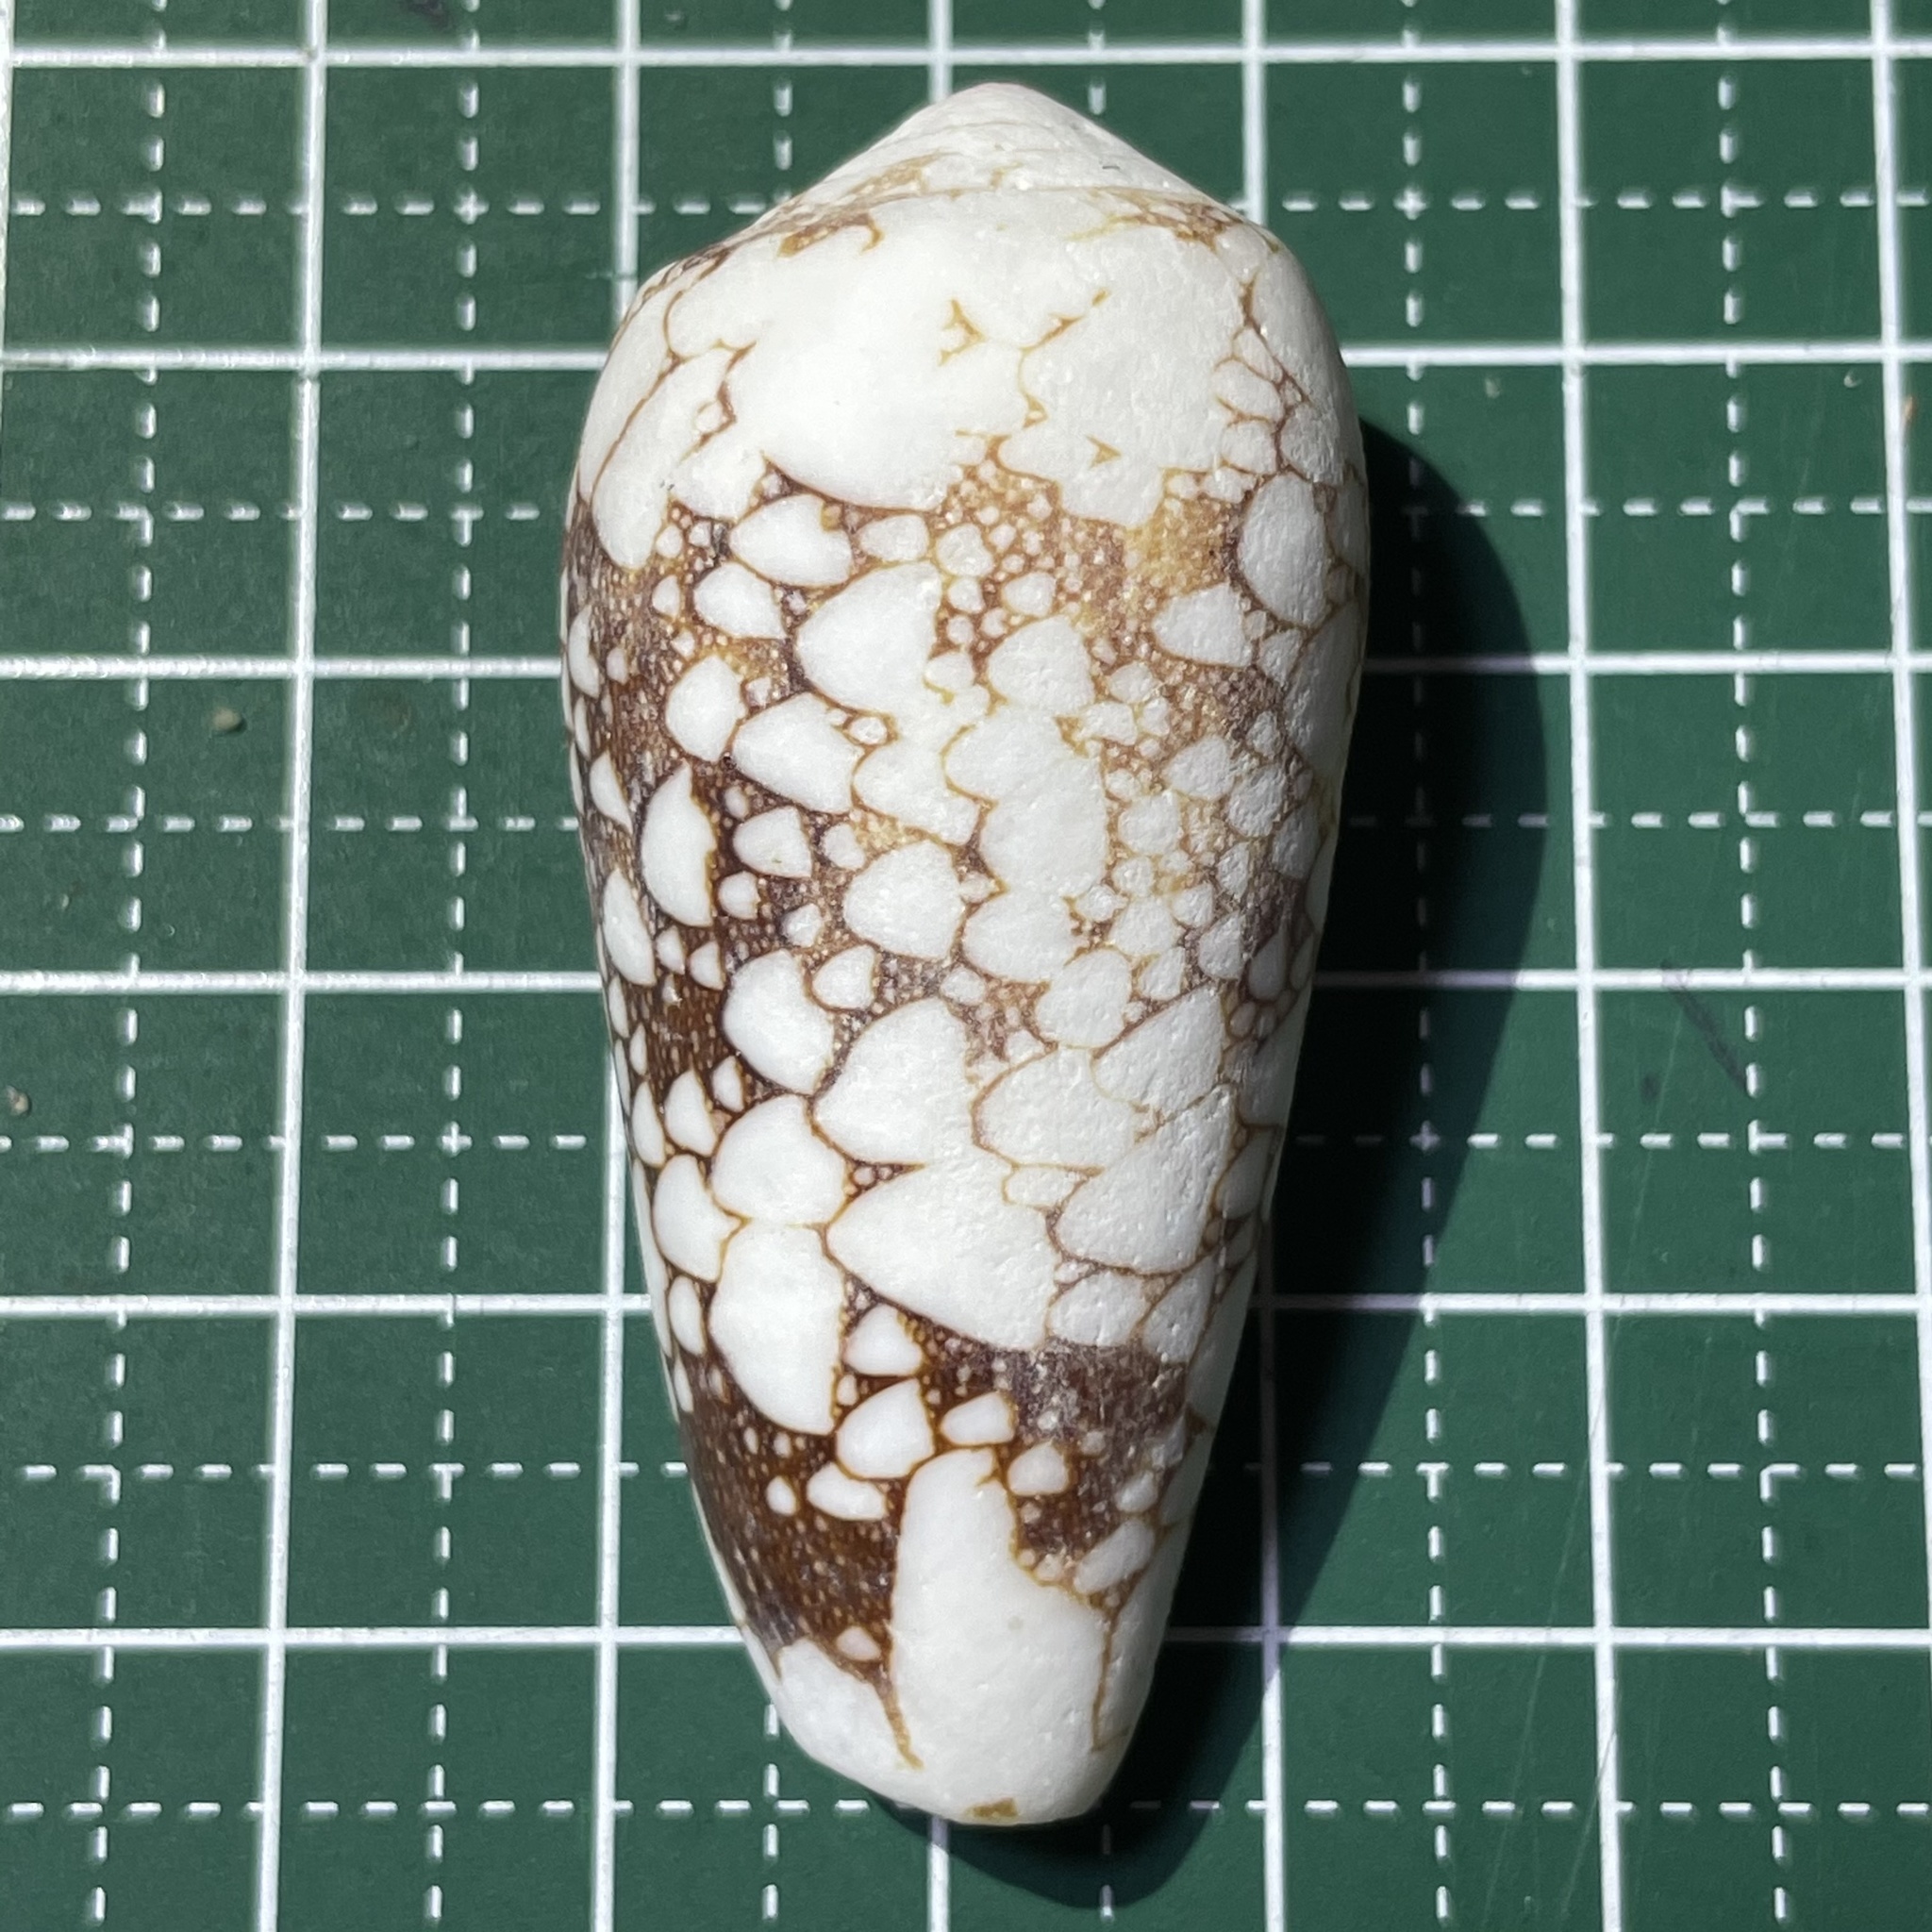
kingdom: Animalia
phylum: Mollusca
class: Gastropoda
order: Neogastropoda
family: Conidae
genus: Conus
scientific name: Conus omaria
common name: Omaria cone
